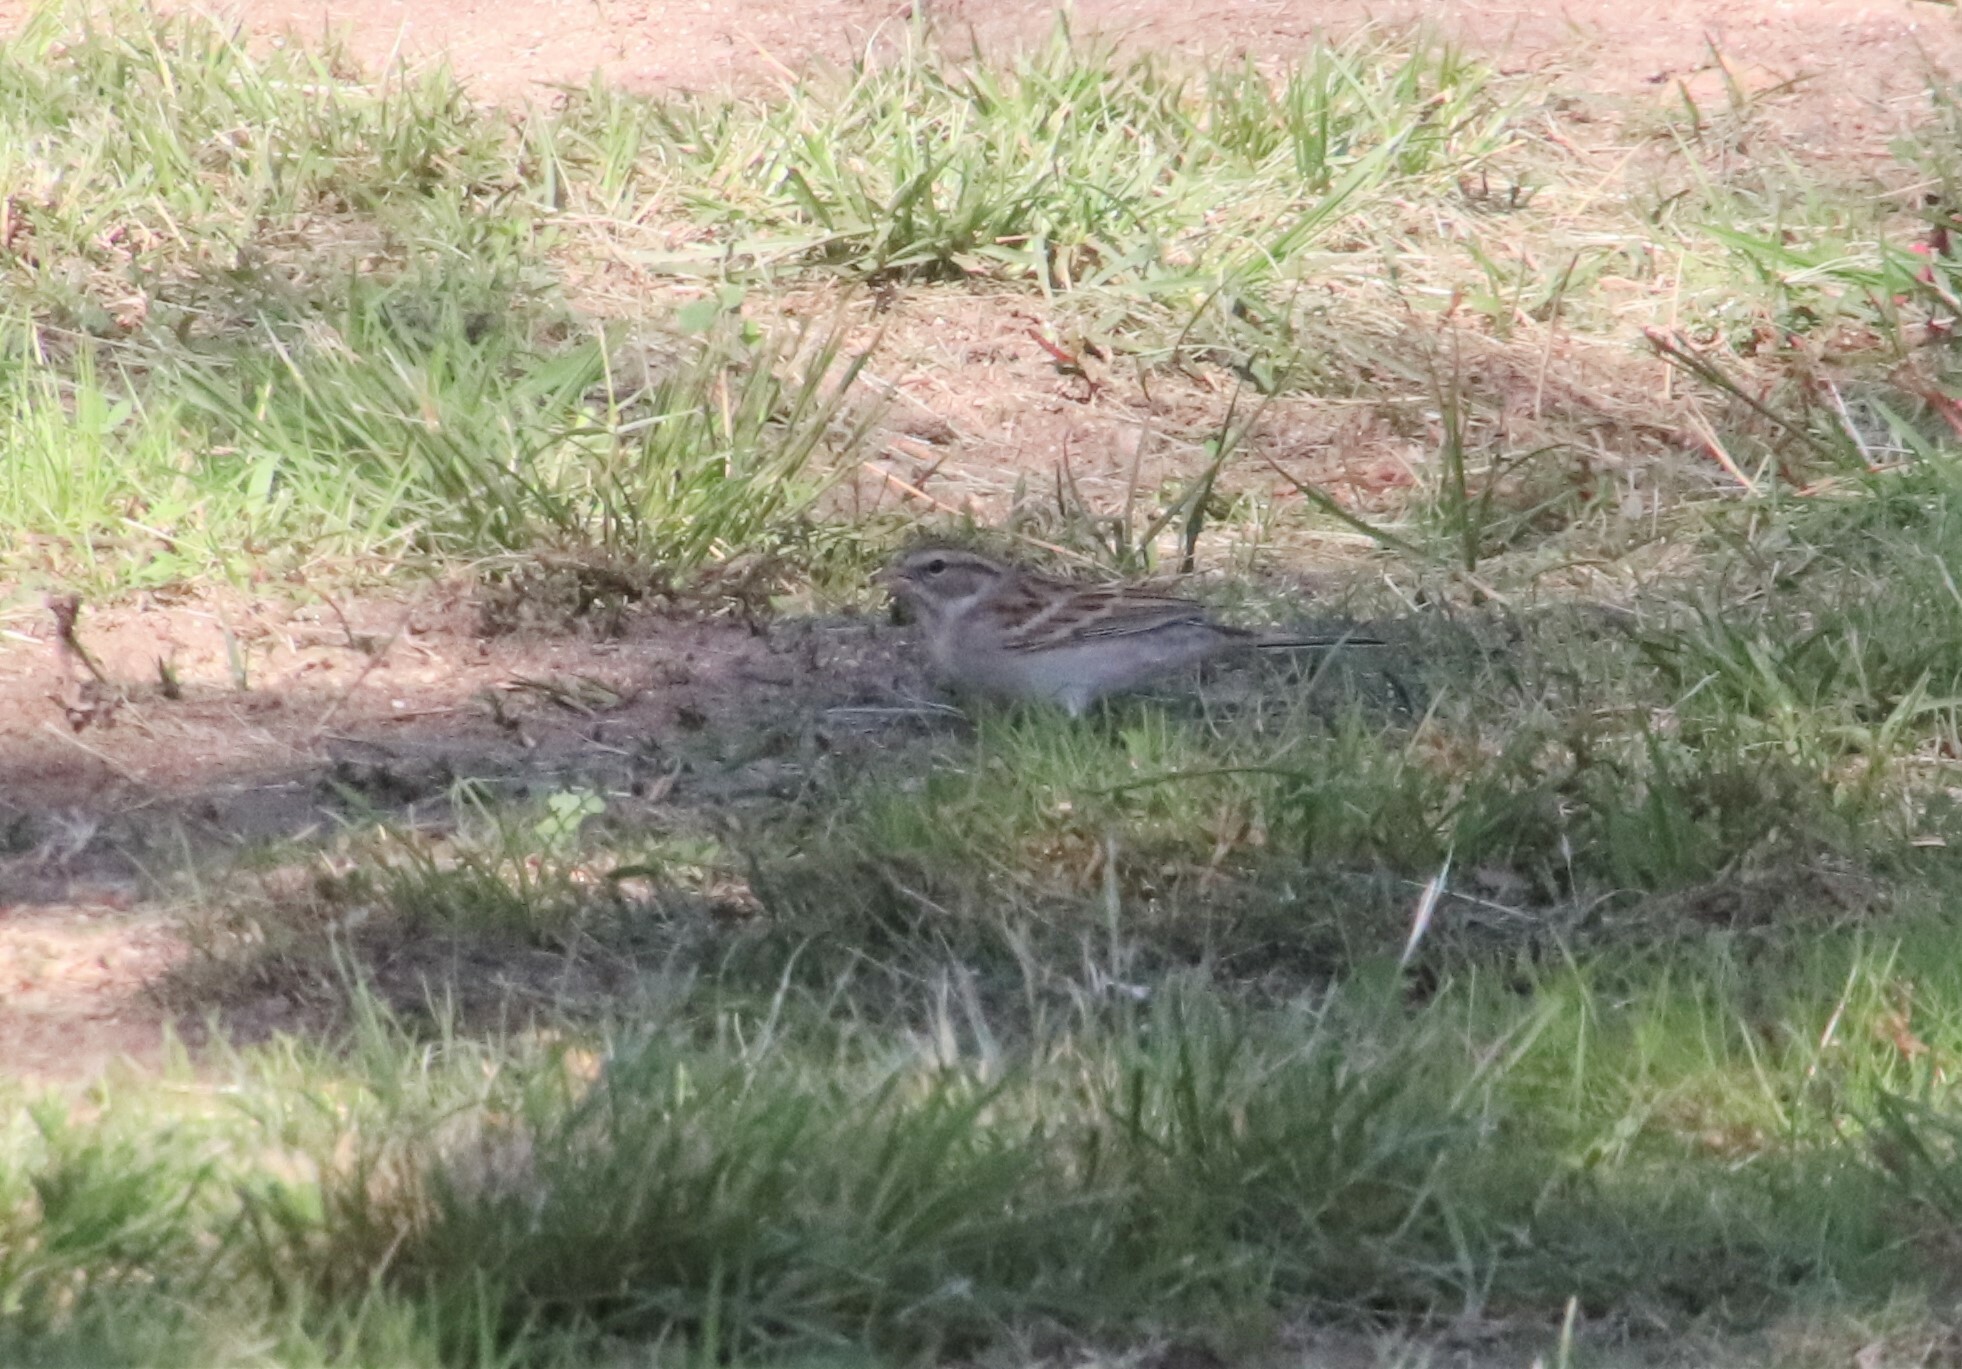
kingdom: Animalia
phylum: Chordata
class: Aves
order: Passeriformes
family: Passerellidae
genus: Spizella
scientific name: Spizella passerina
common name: Chipping sparrow
